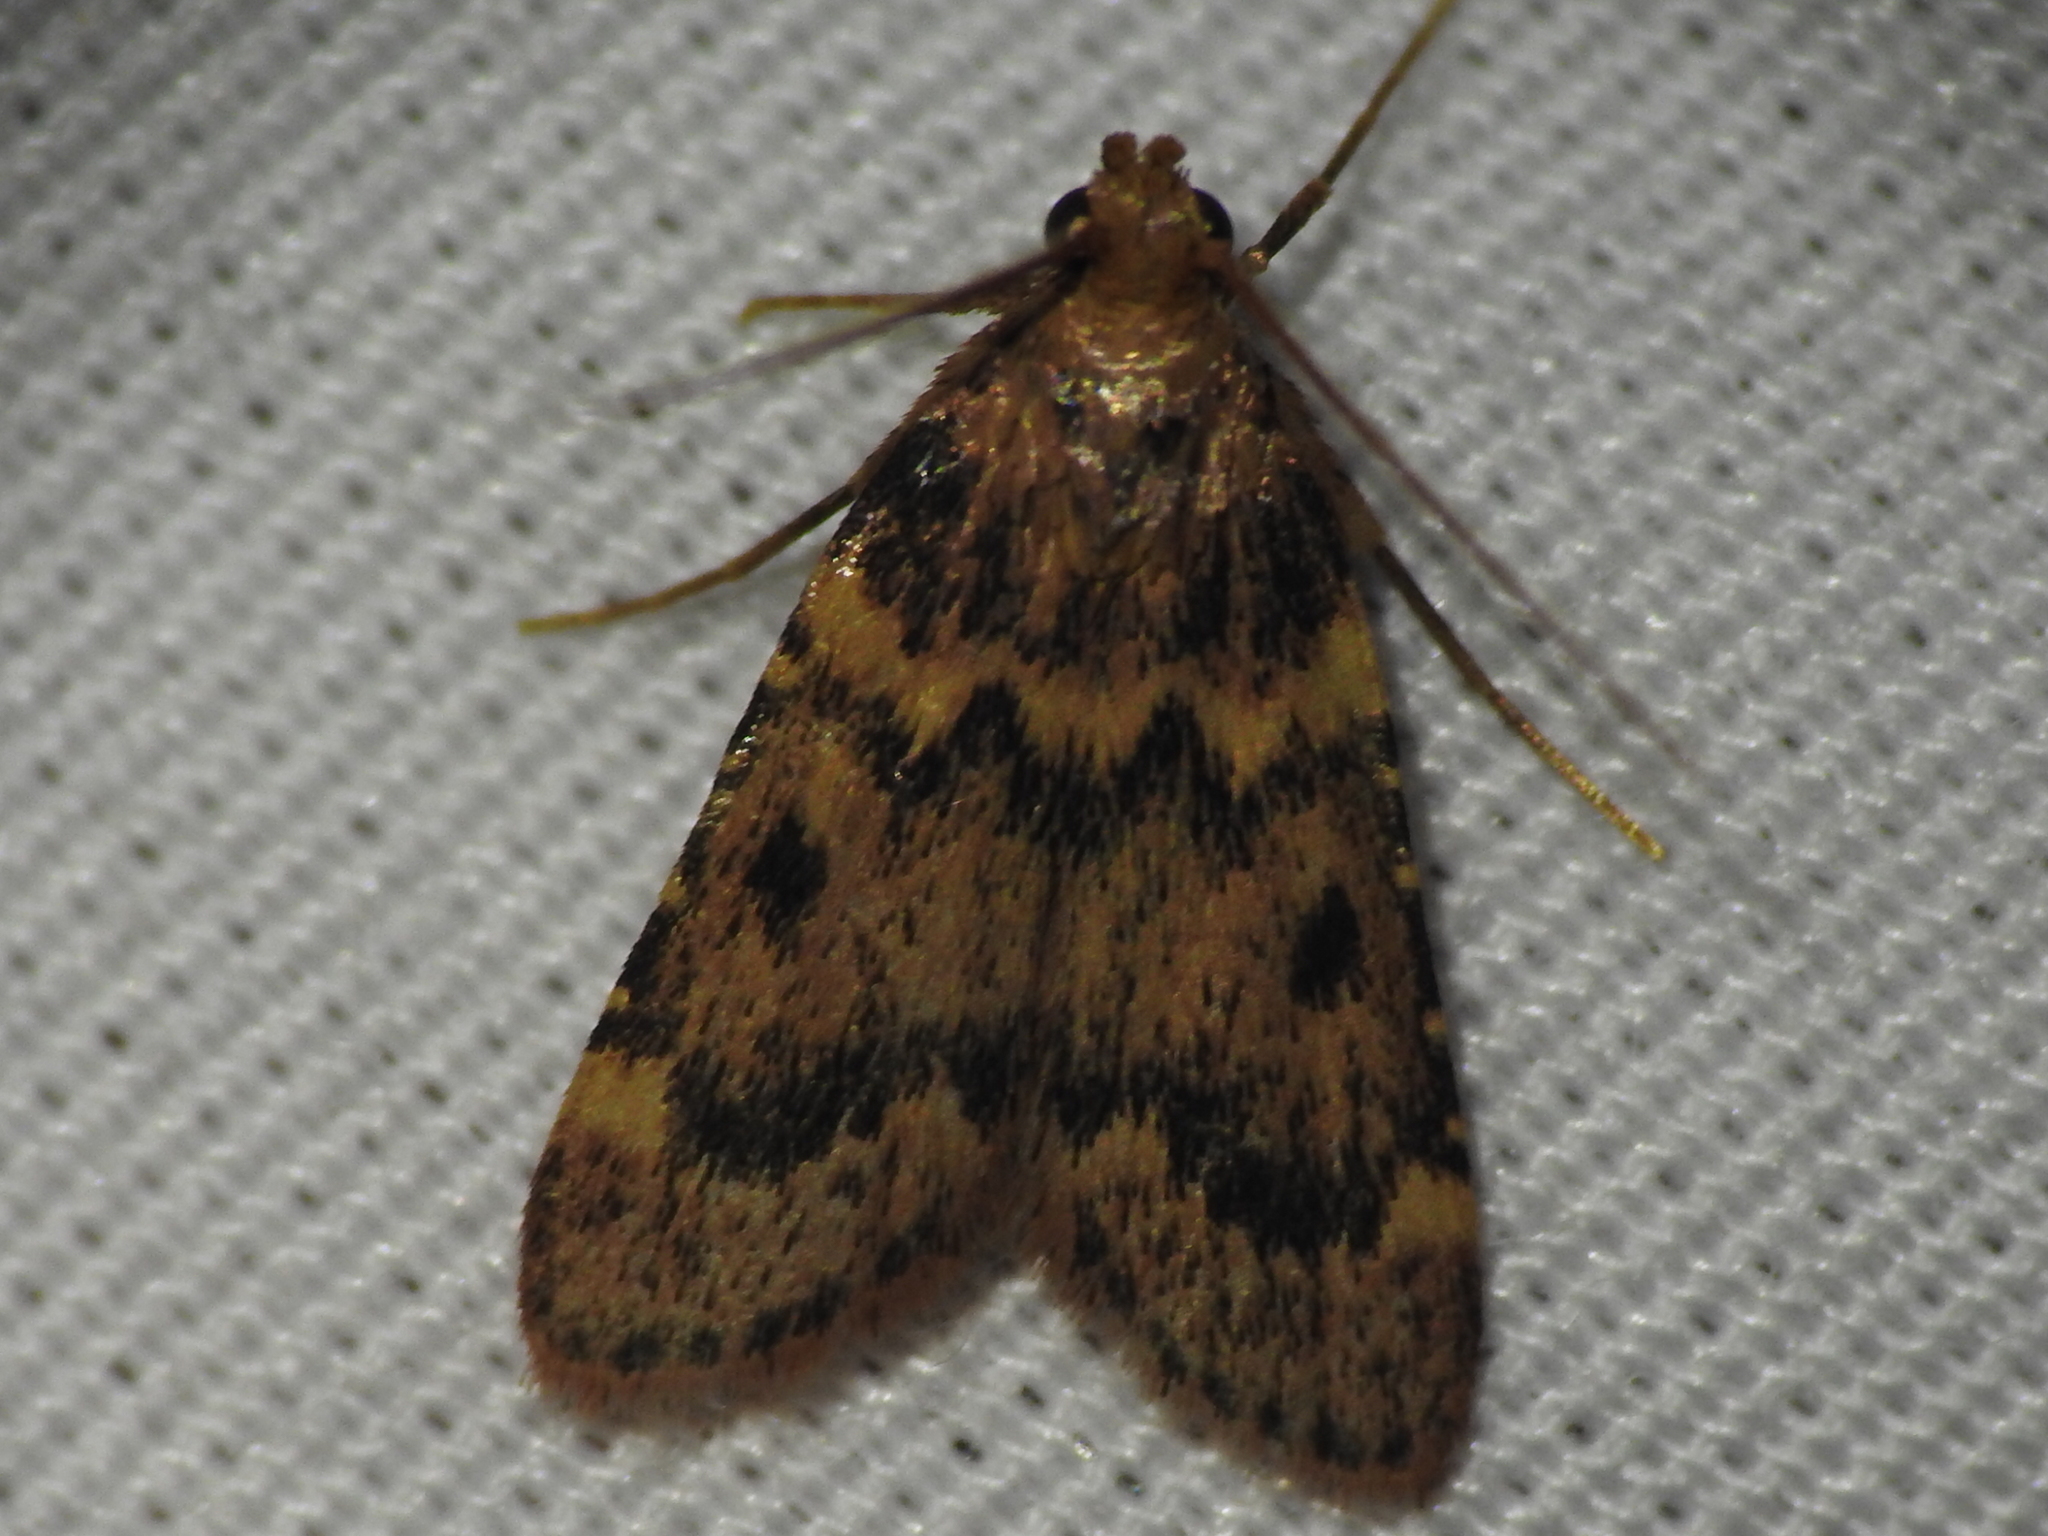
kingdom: Animalia
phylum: Arthropoda
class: Insecta
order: Lepidoptera
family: Pyralidae
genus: Aglossa
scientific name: Aglossa disciferalis
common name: Pink-masked pyralid moth
